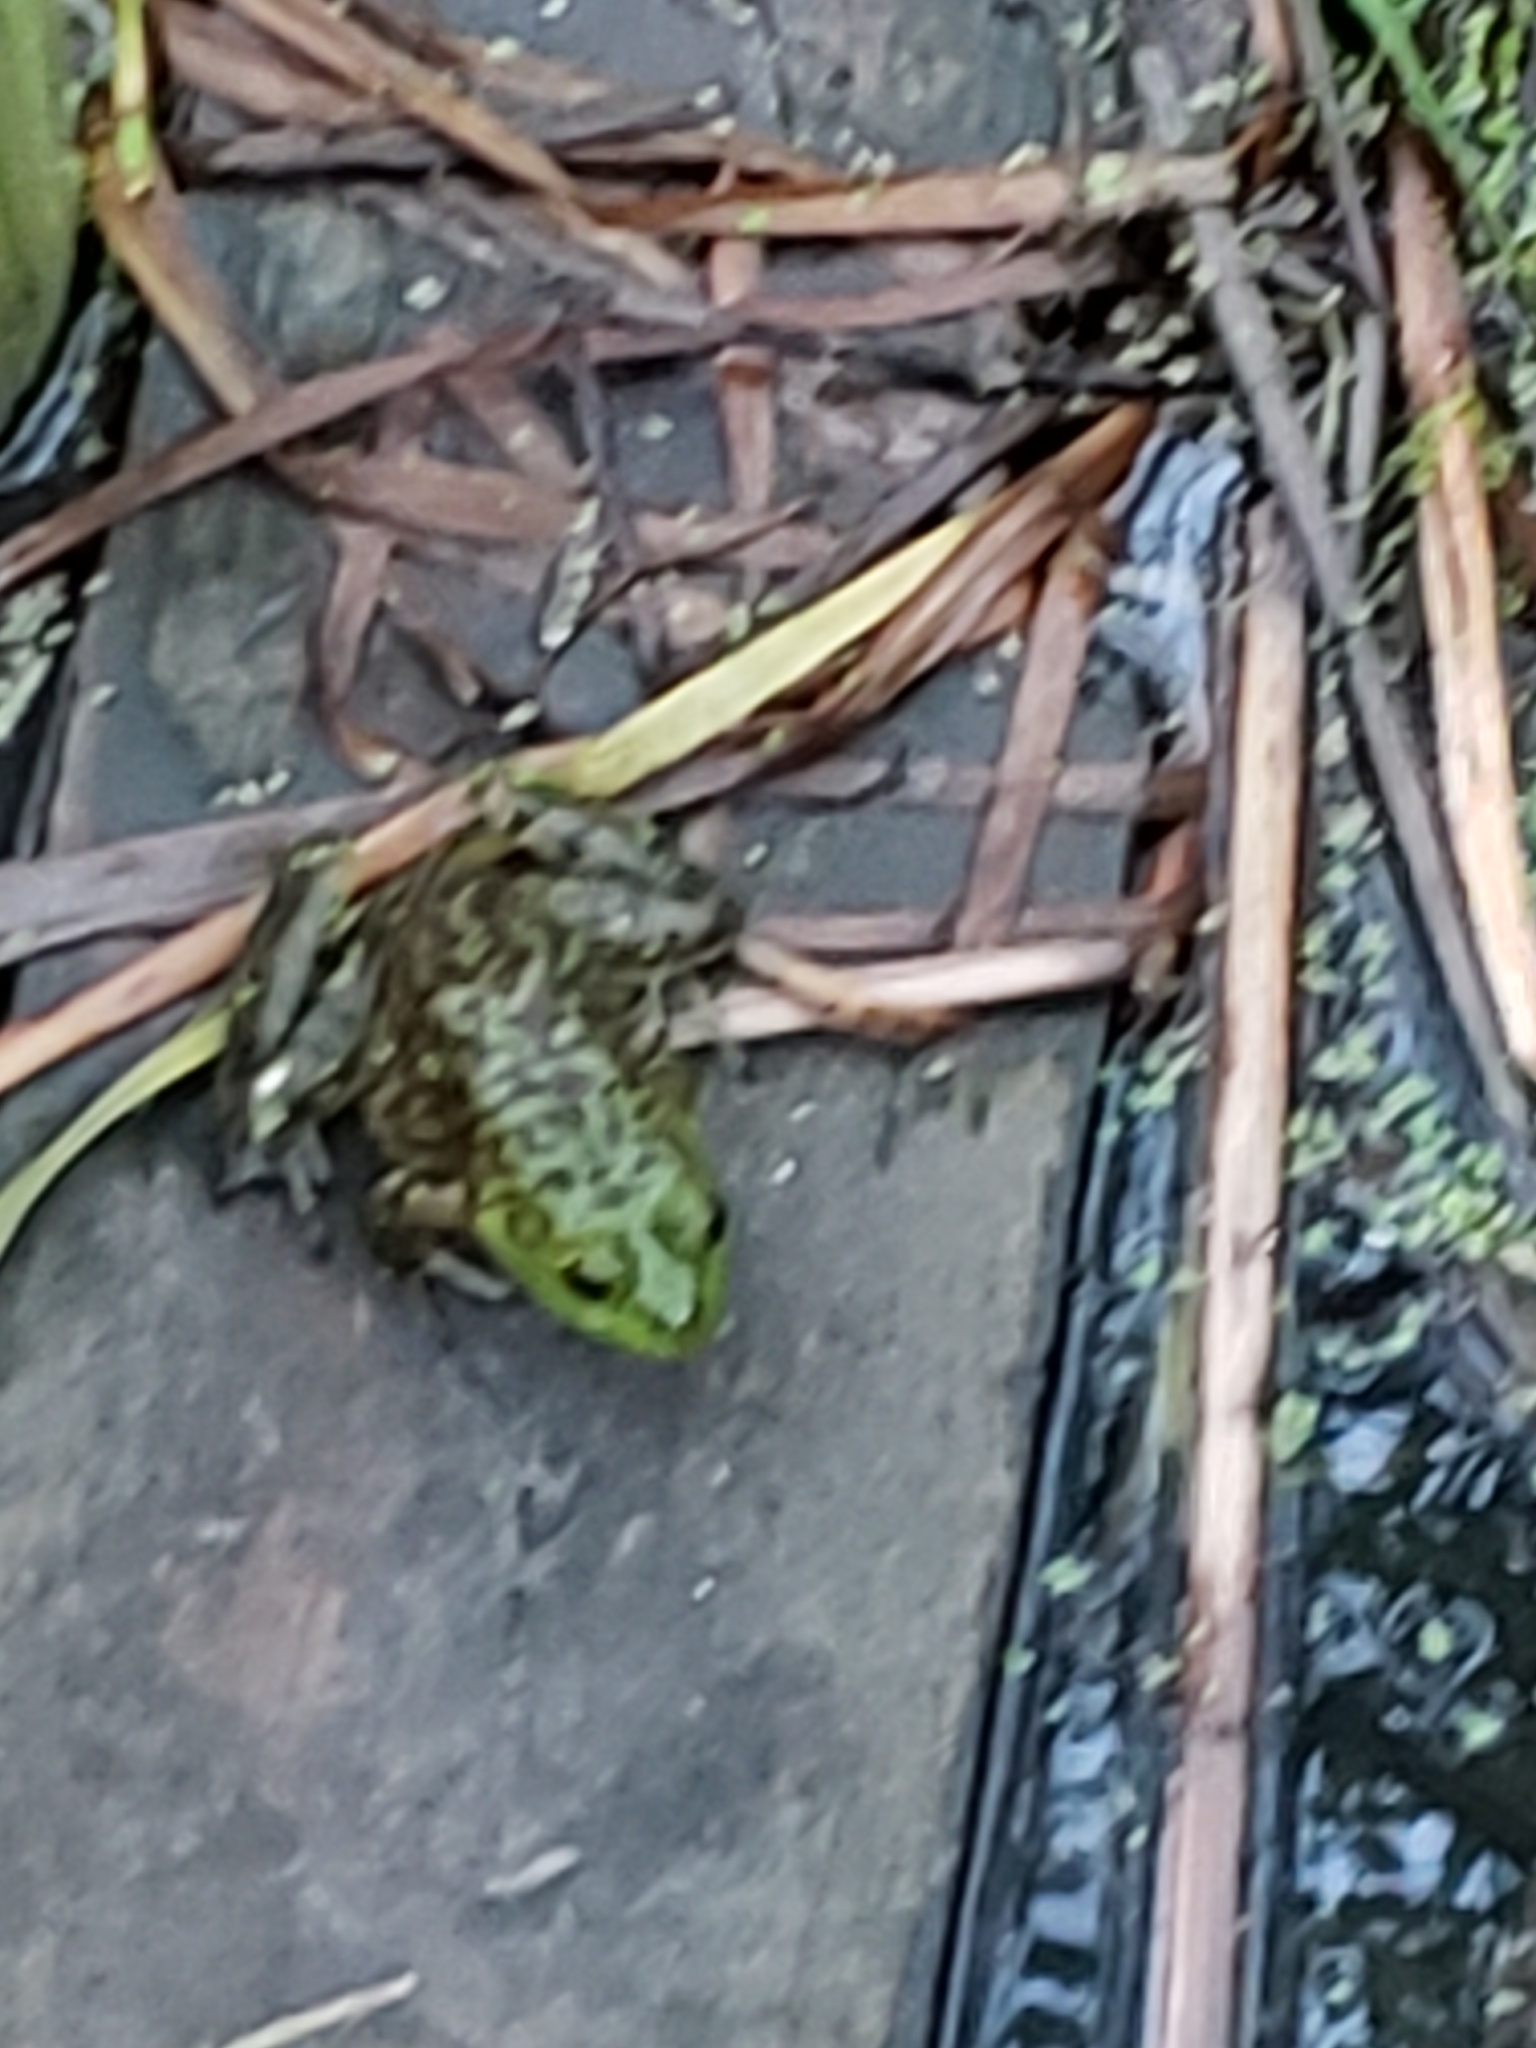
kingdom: Animalia
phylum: Chordata
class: Amphibia
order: Anura
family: Ranidae
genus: Lithobates
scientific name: Lithobates catesbeianus
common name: American bullfrog
